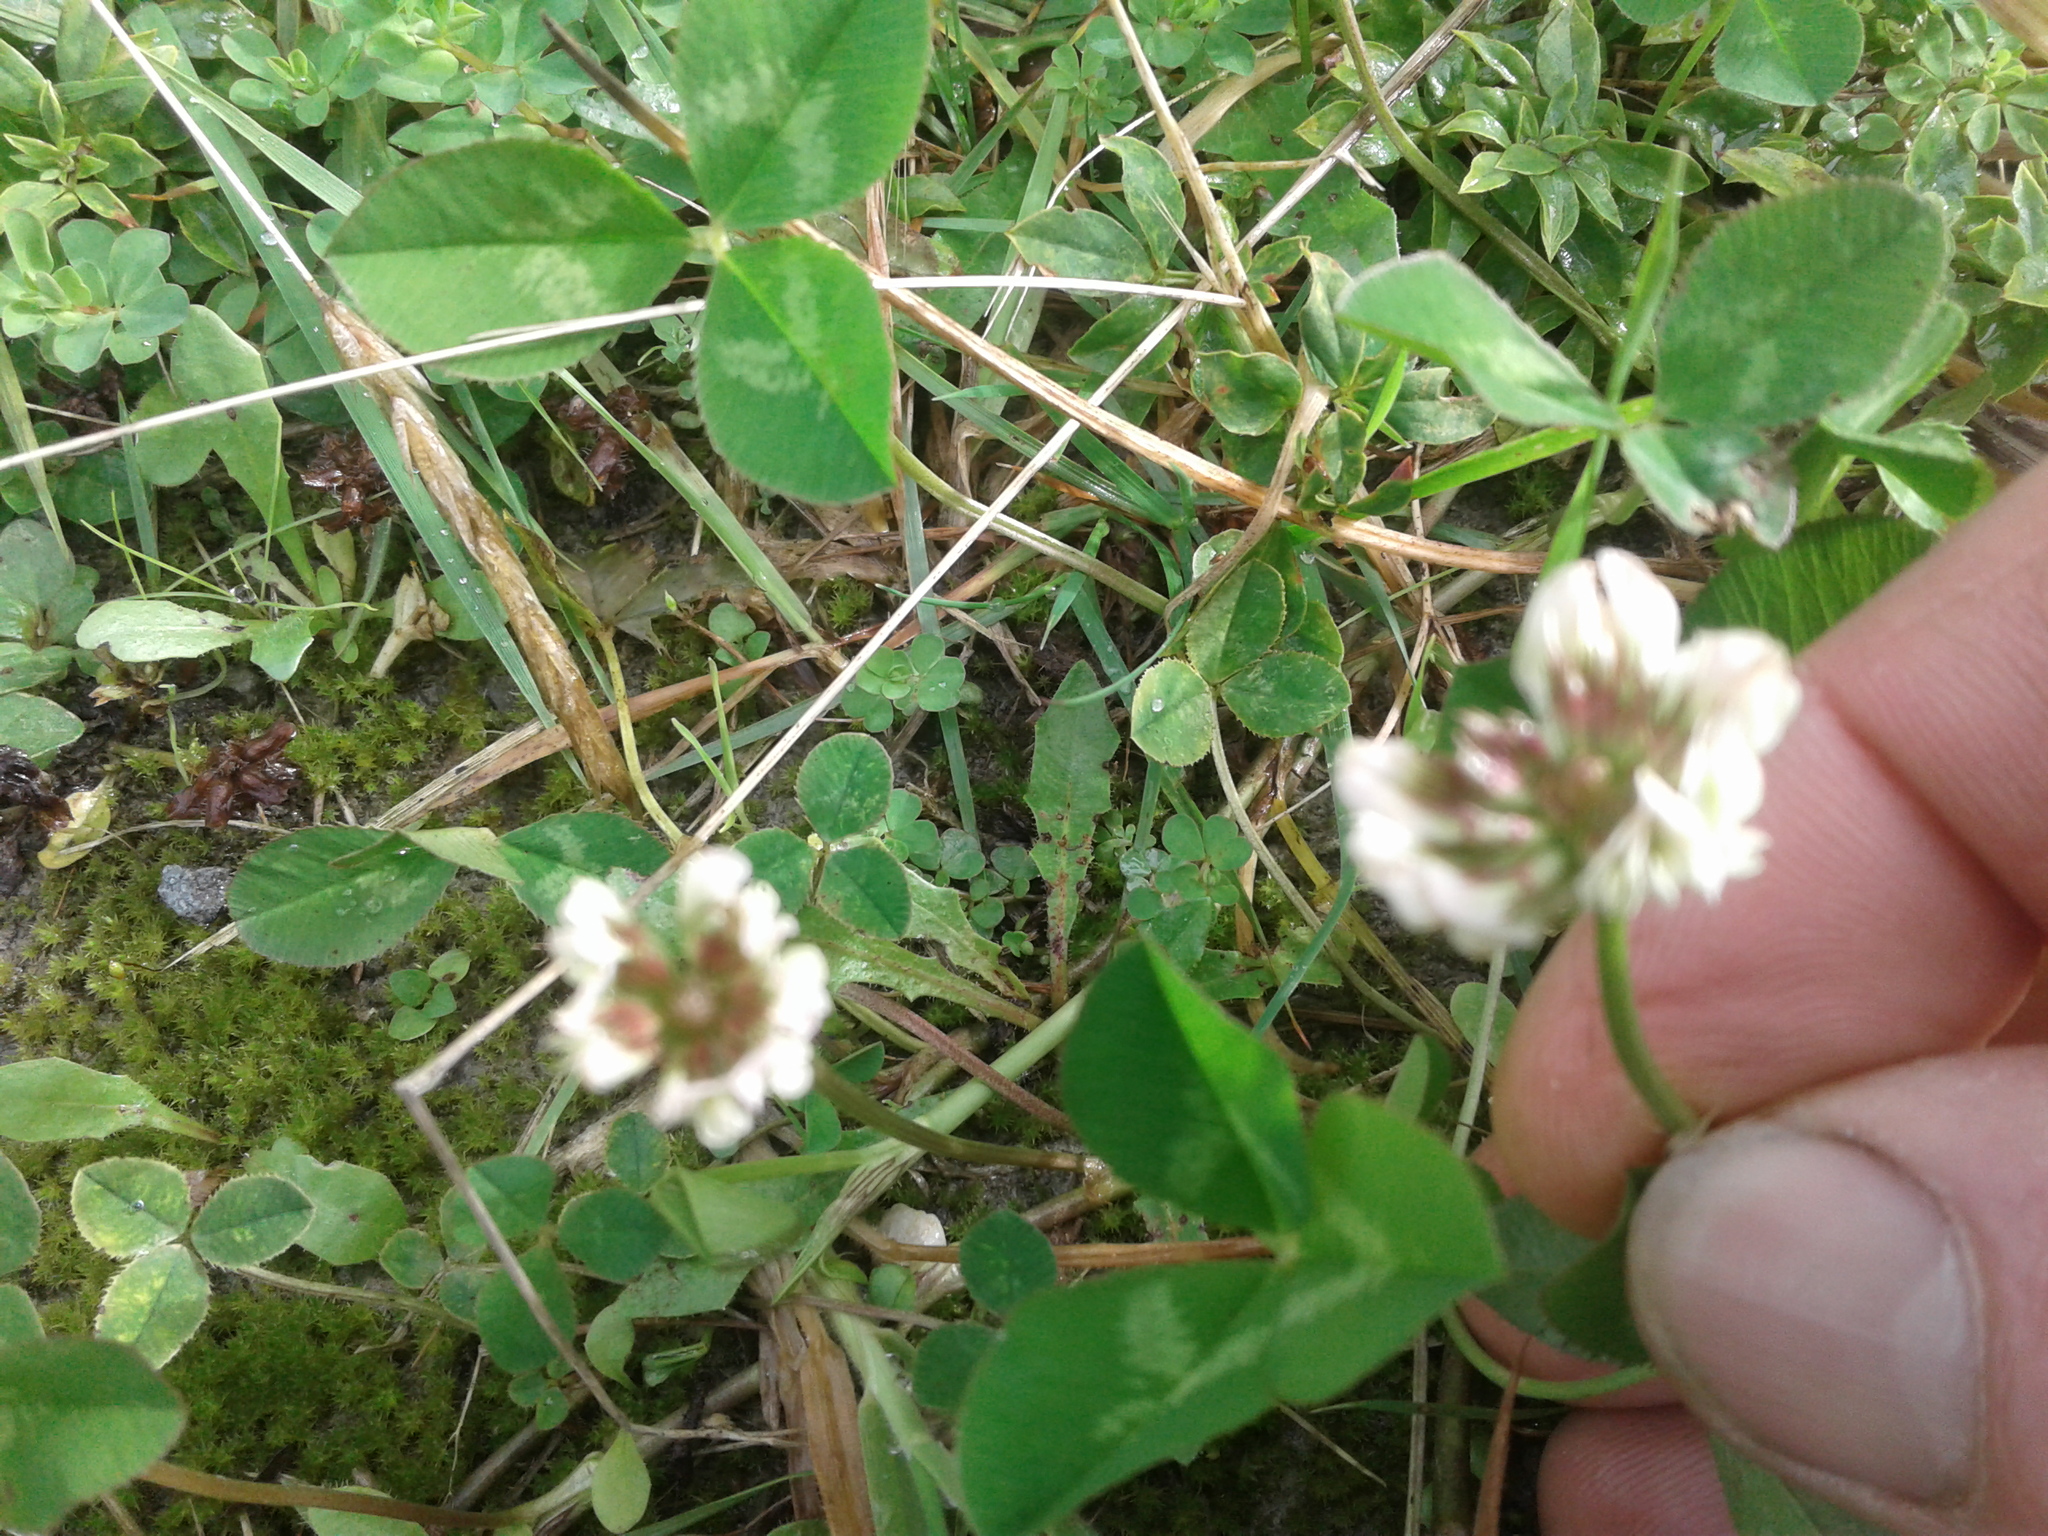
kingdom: Plantae
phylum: Tracheophyta
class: Magnoliopsida
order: Fabales
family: Fabaceae
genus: Trifolium
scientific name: Trifolium repens
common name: White clover
